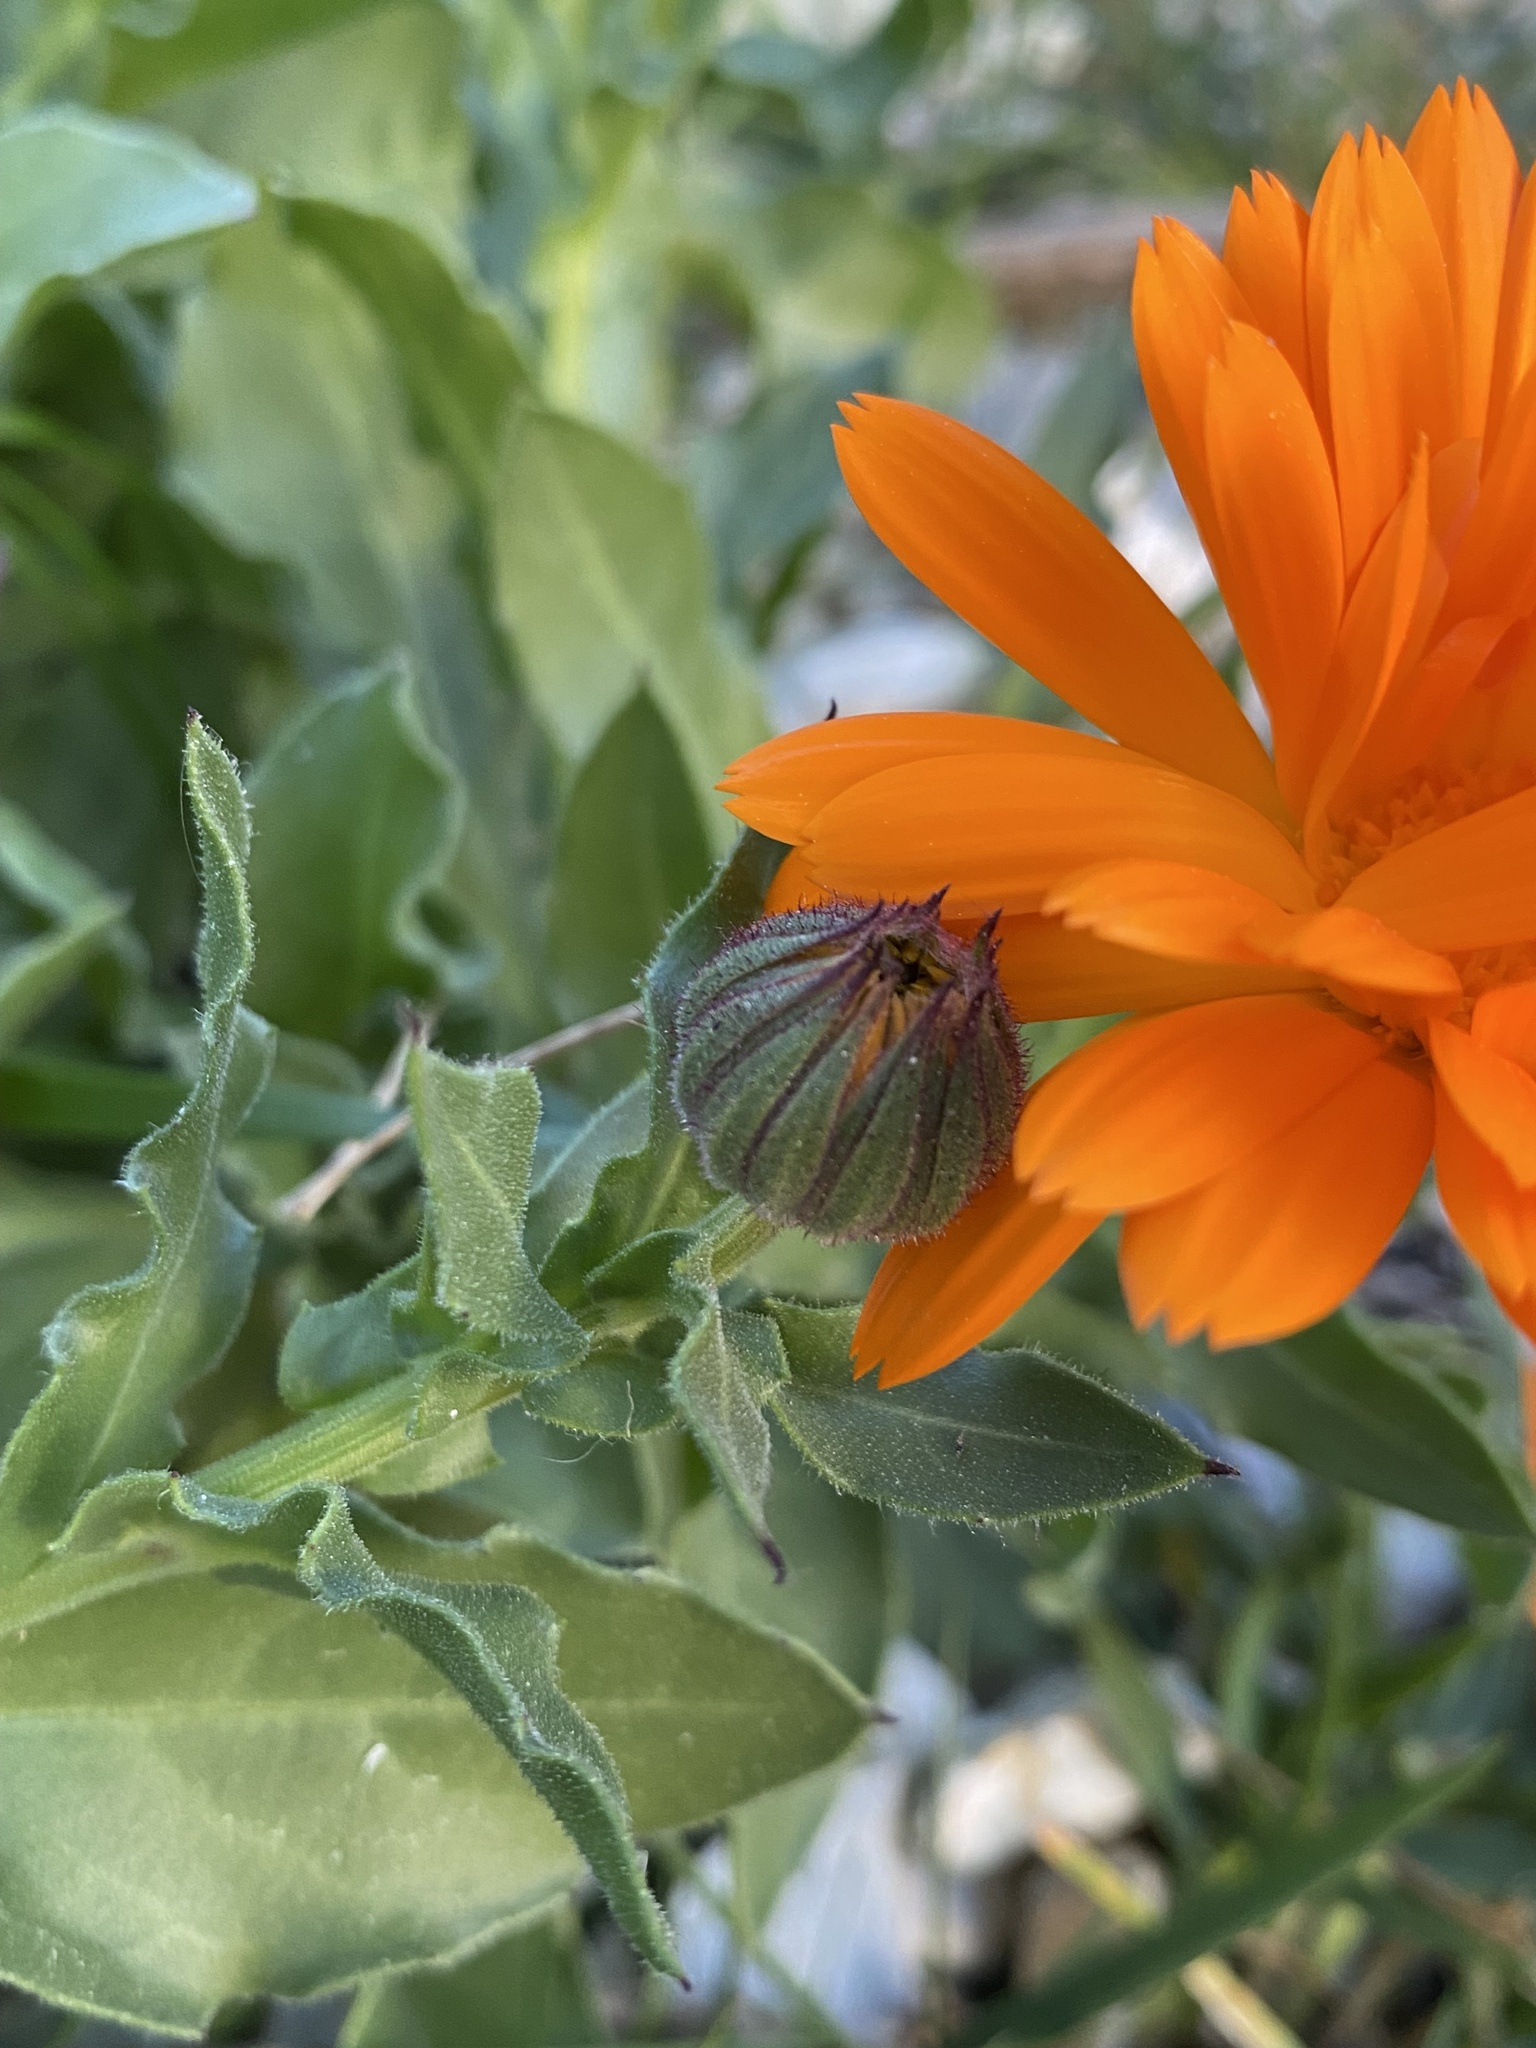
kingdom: Plantae
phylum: Tracheophyta
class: Magnoliopsida
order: Asterales
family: Asteraceae
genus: Calendula
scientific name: Calendula officinalis
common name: Pot marigold
